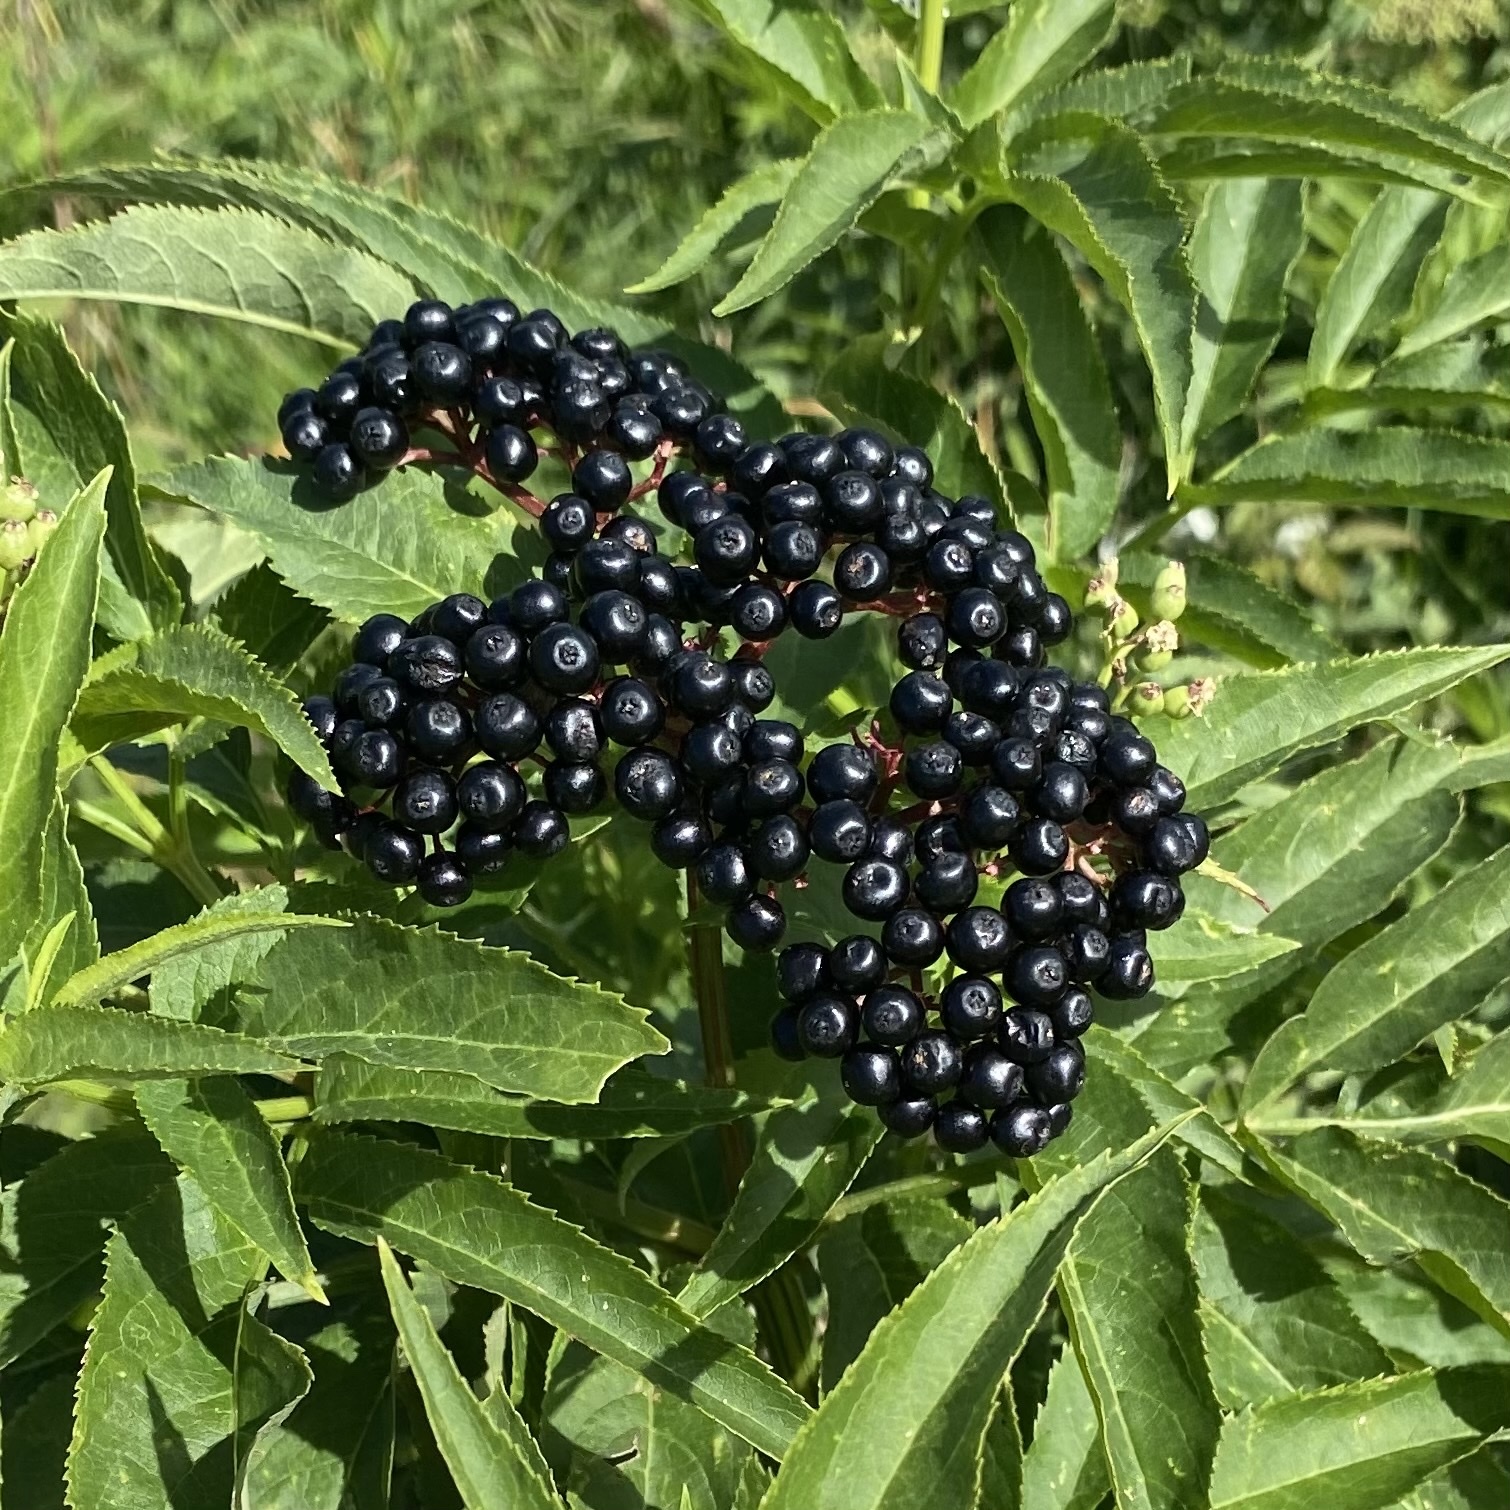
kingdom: Plantae
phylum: Tracheophyta
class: Magnoliopsida
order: Dipsacales
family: Viburnaceae
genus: Sambucus
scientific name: Sambucus ebulus
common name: Dwarf elder
